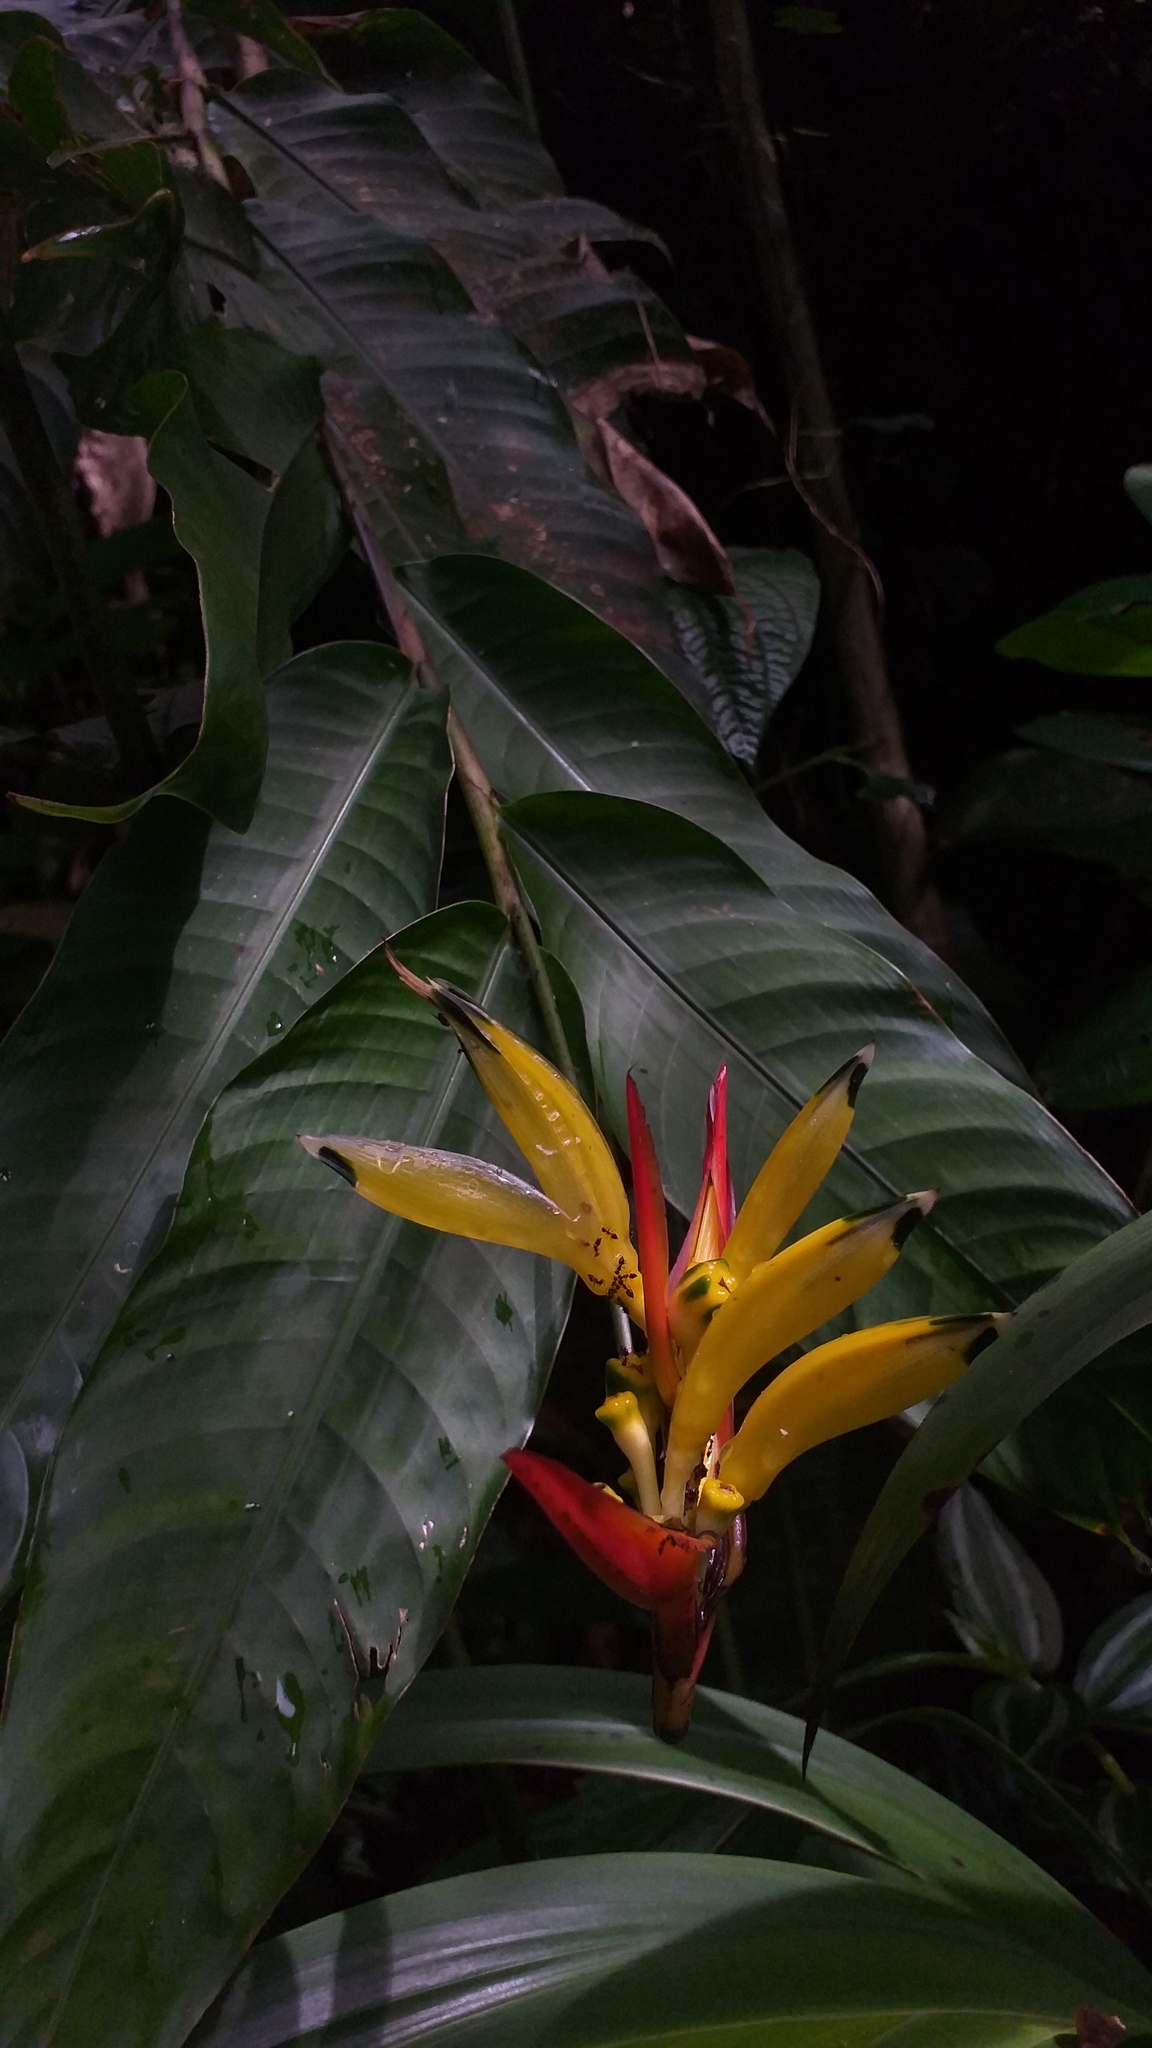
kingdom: Plantae
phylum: Tracheophyta
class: Liliopsida
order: Zingiberales
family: Heliconiaceae
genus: Heliconia
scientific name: Heliconia hirsuta
